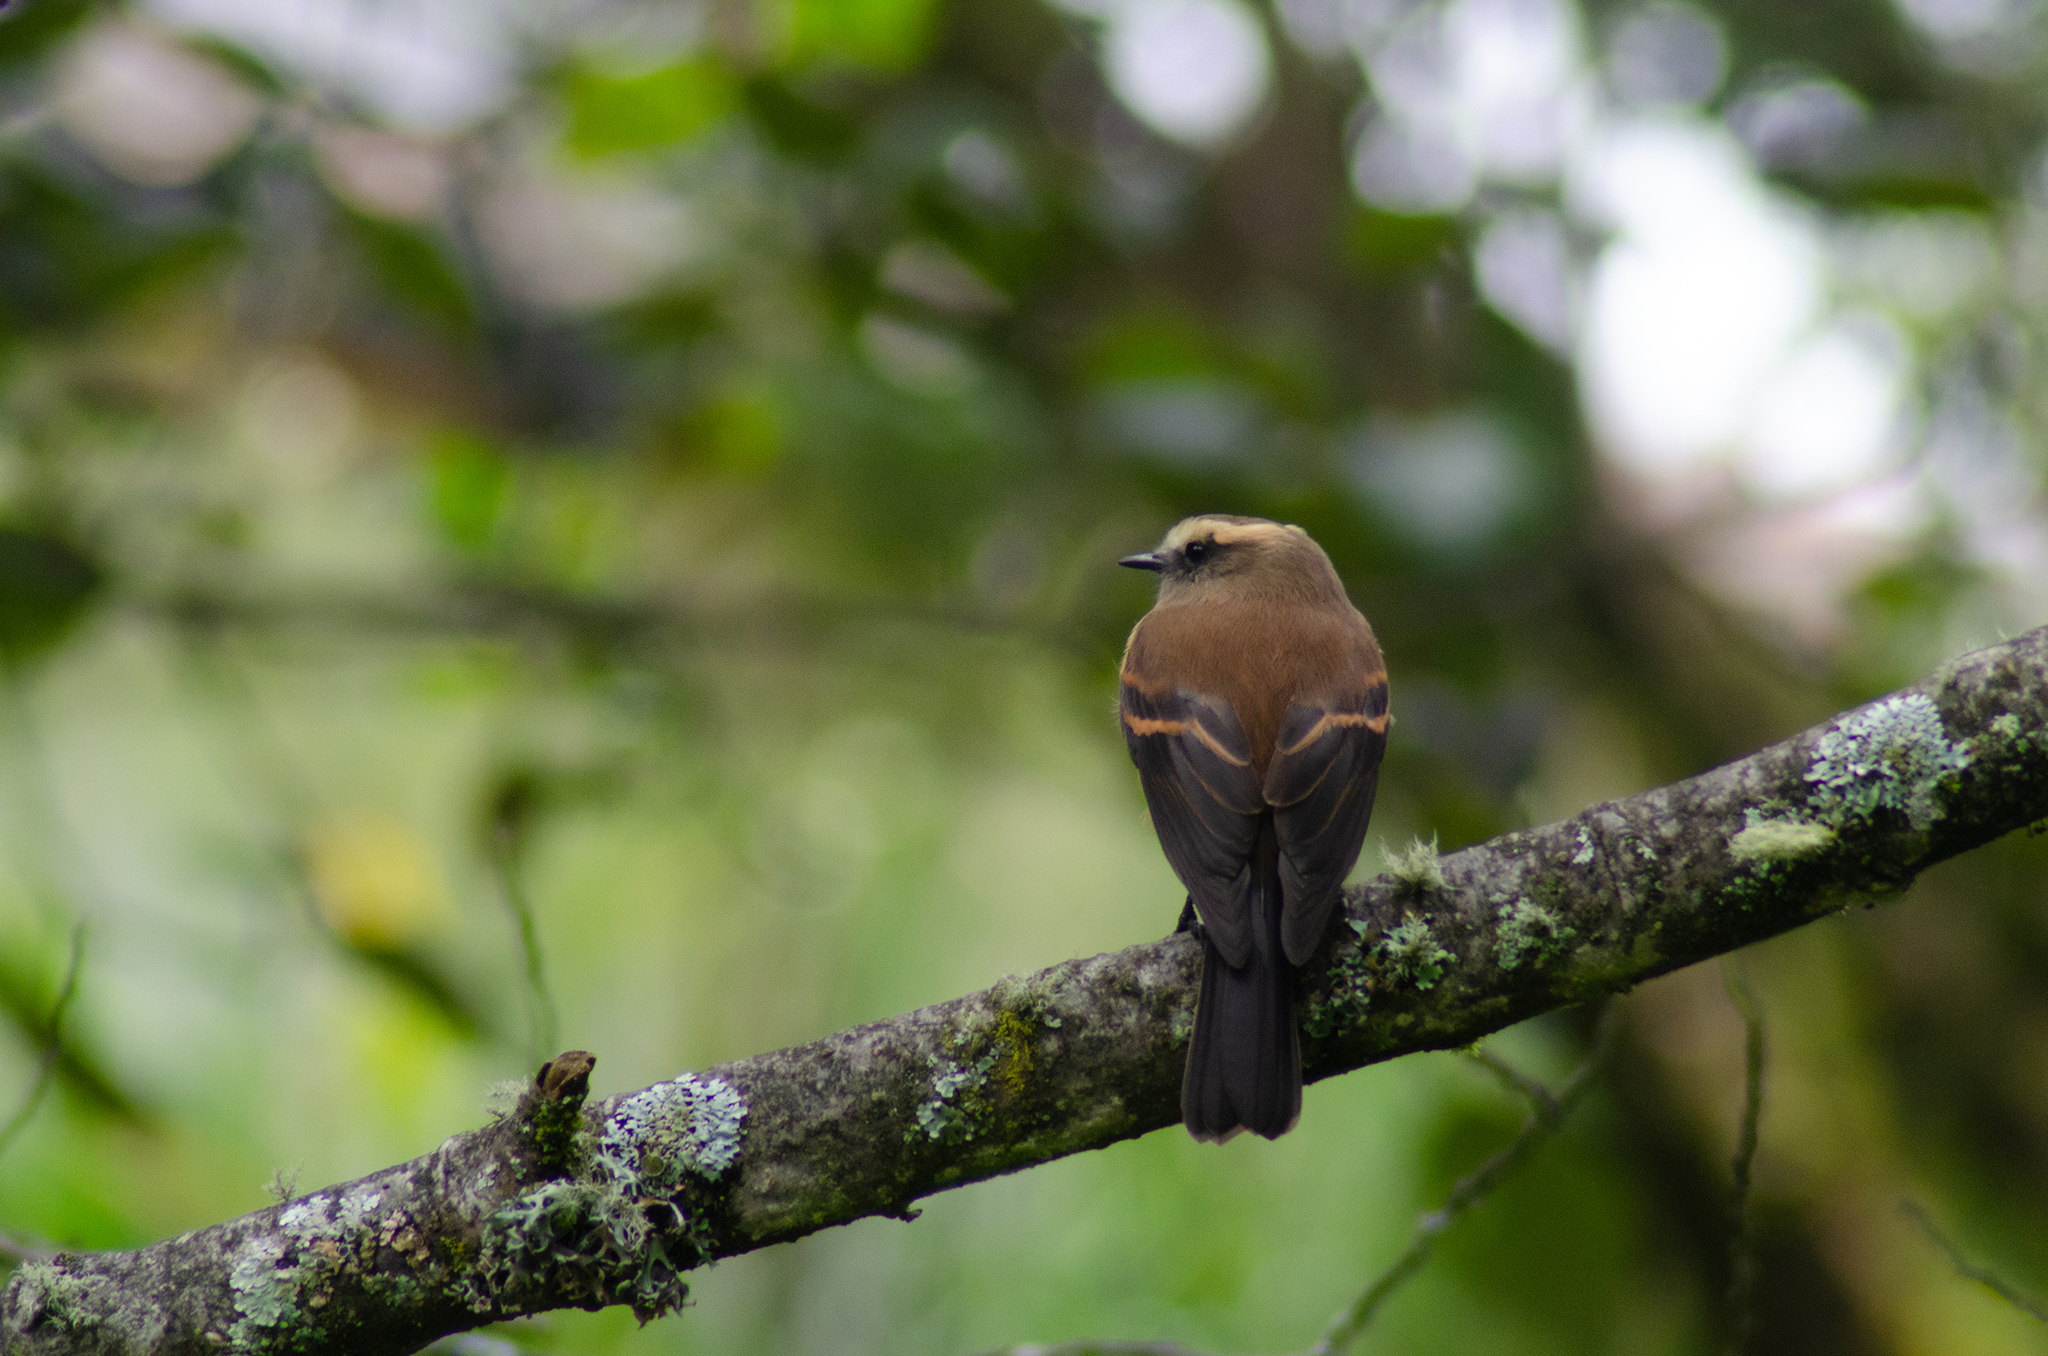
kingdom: Animalia
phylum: Chordata
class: Aves
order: Passeriformes
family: Tyrannidae
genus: Ochthoeca
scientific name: Ochthoeca fumicolor
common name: Brown-backed chat-tyrant
